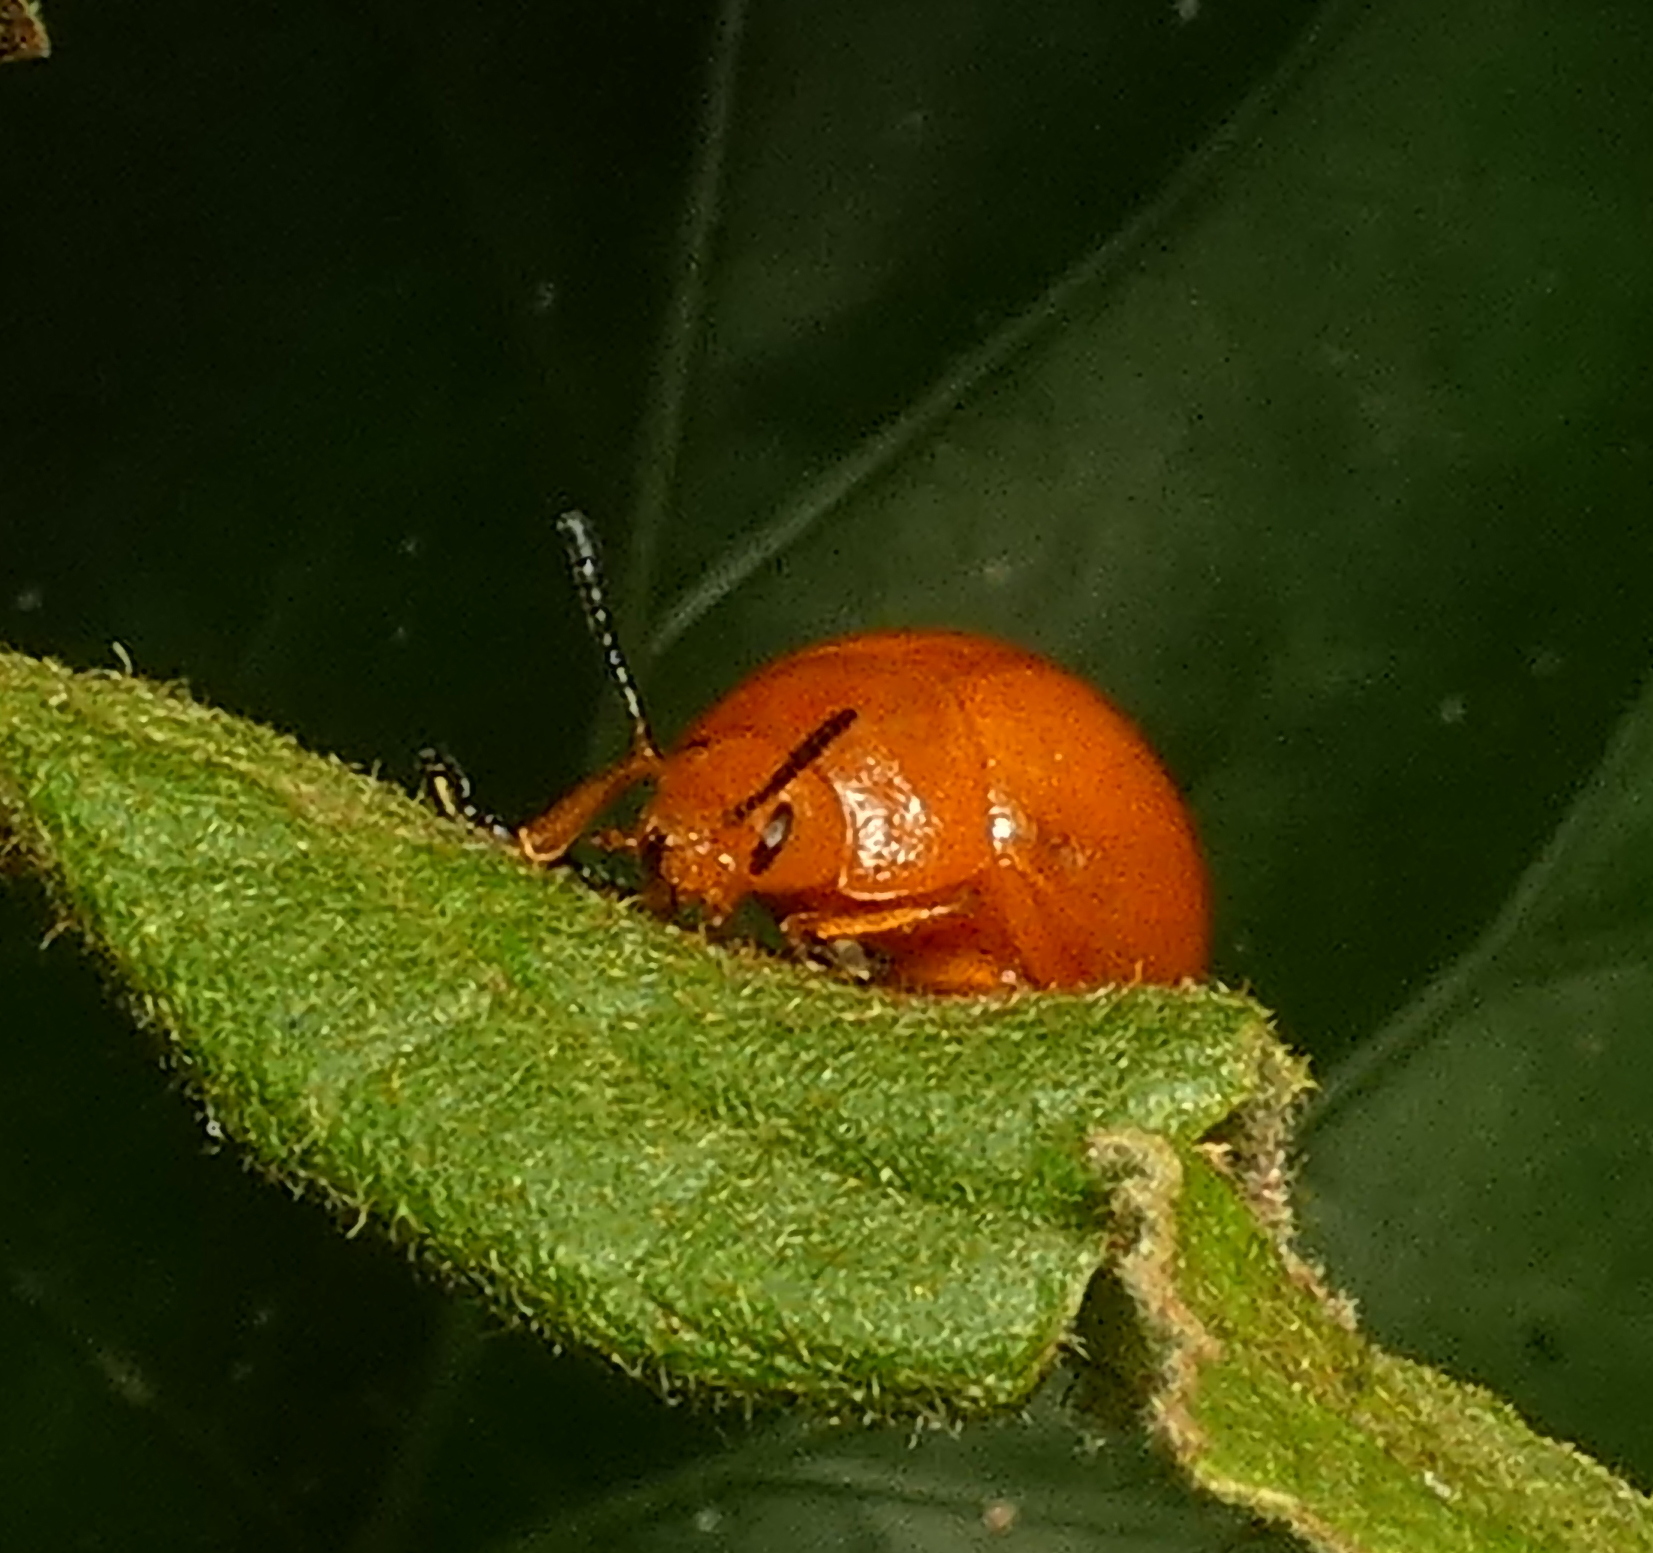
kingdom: Animalia
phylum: Arthropoda
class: Insecta
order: Coleoptera
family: Chrysomelidae
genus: Eugonycha
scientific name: Eugonycha
